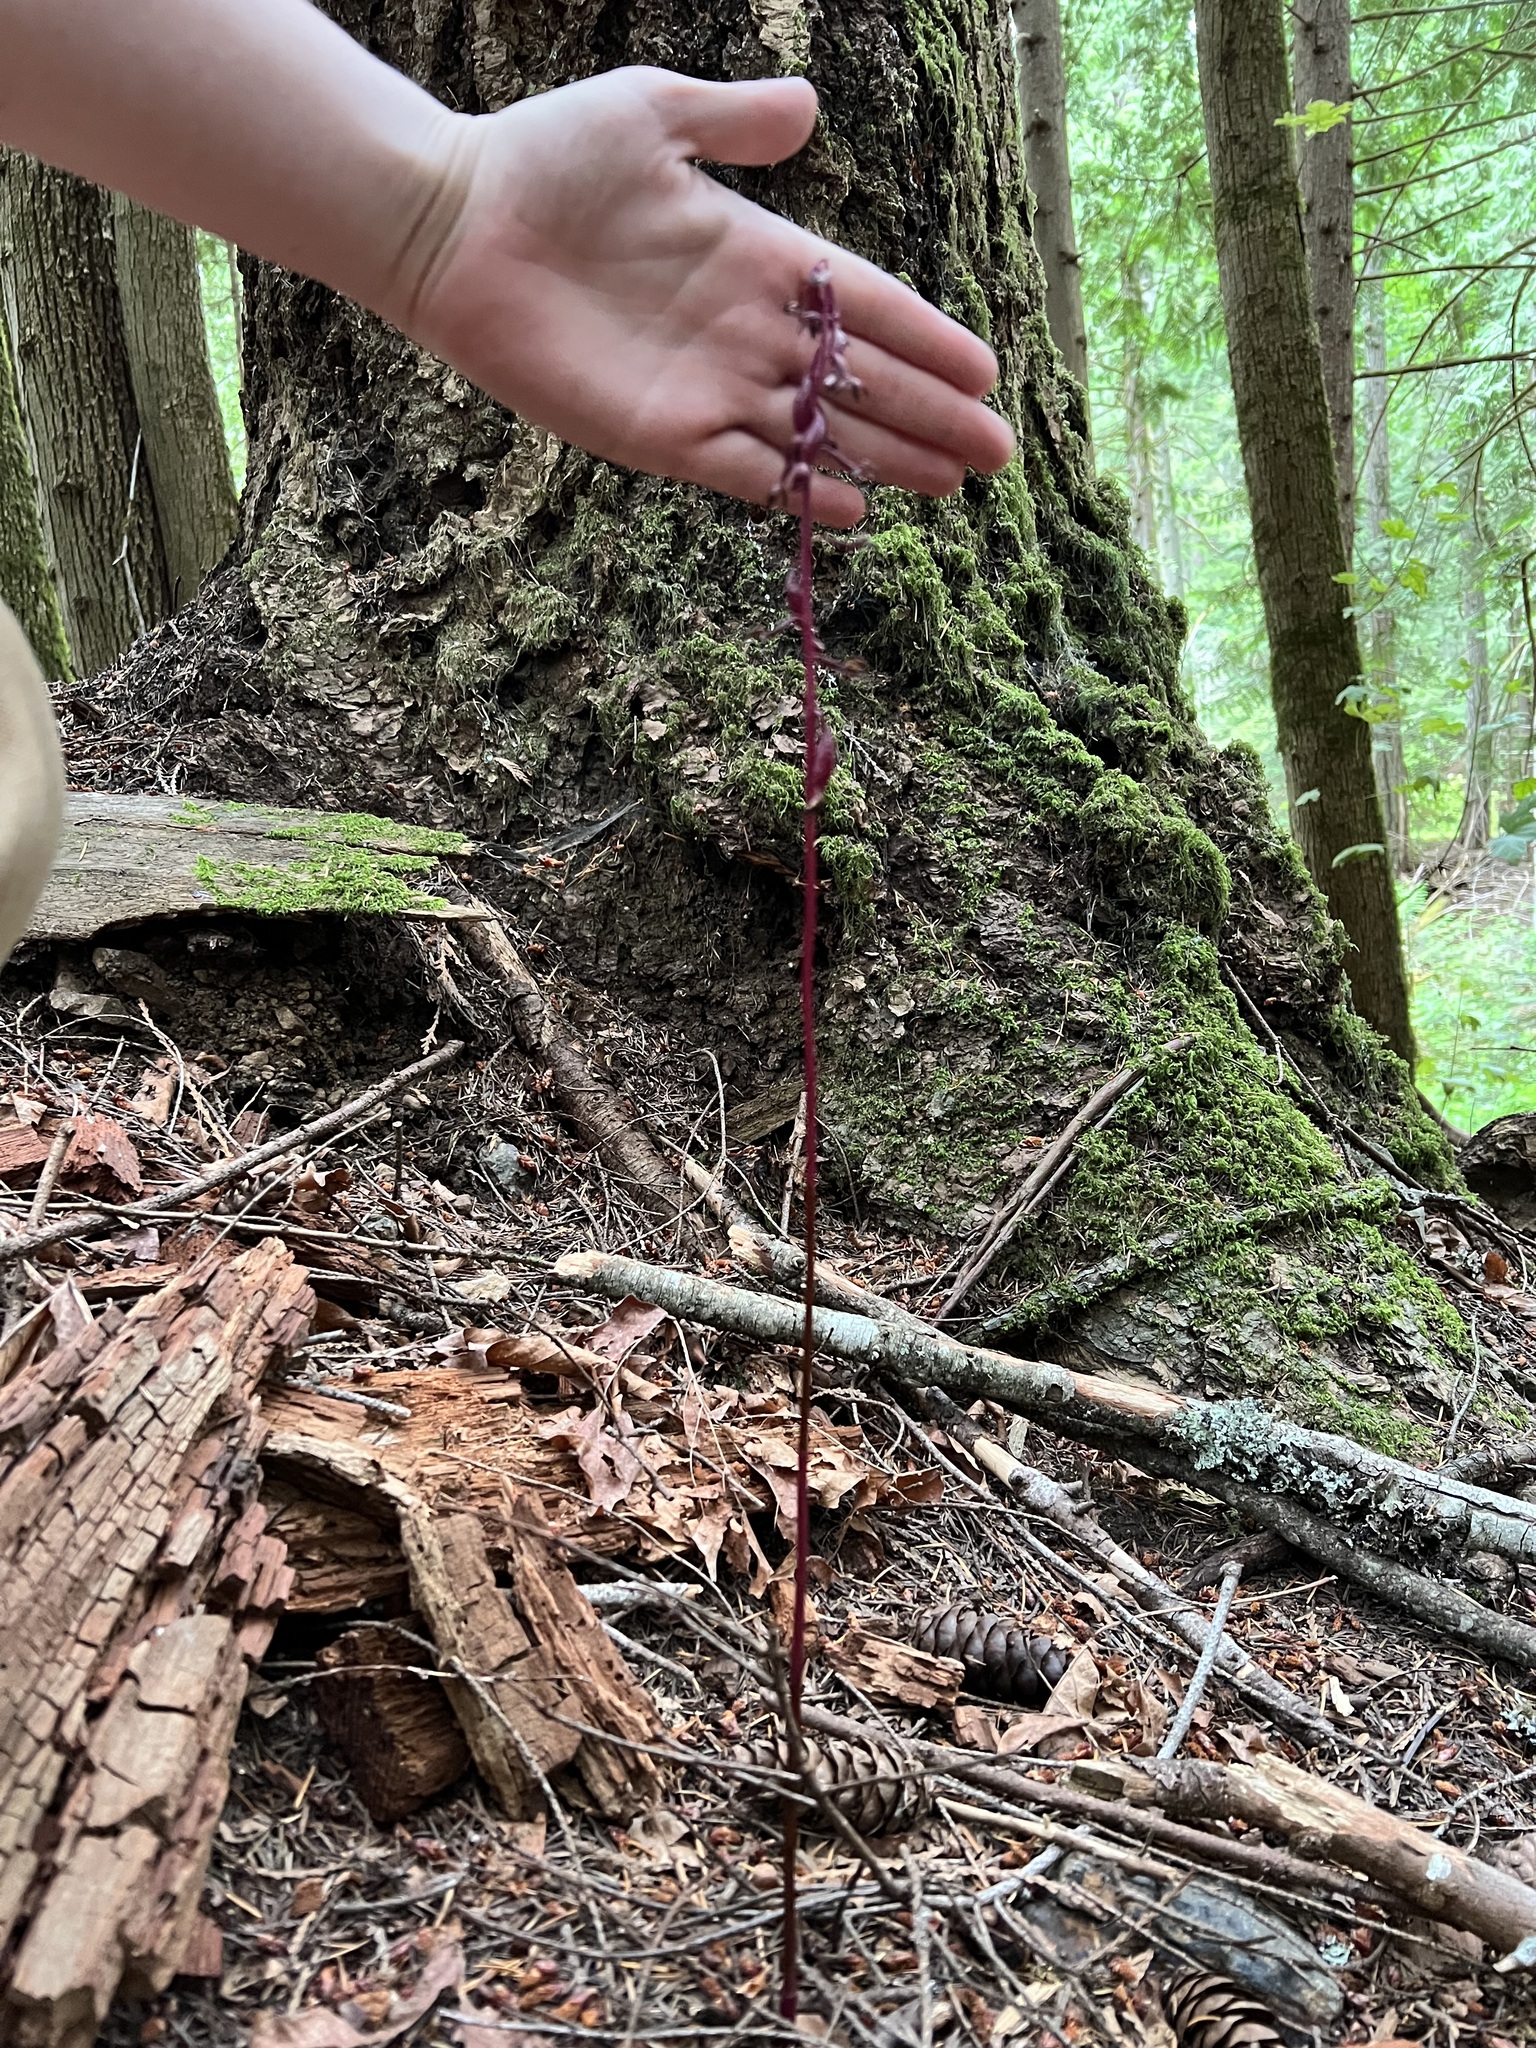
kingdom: Plantae
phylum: Tracheophyta
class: Liliopsida
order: Asparagales
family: Orchidaceae
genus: Corallorhiza
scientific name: Corallorhiza maculata
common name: Spotted coralroot
